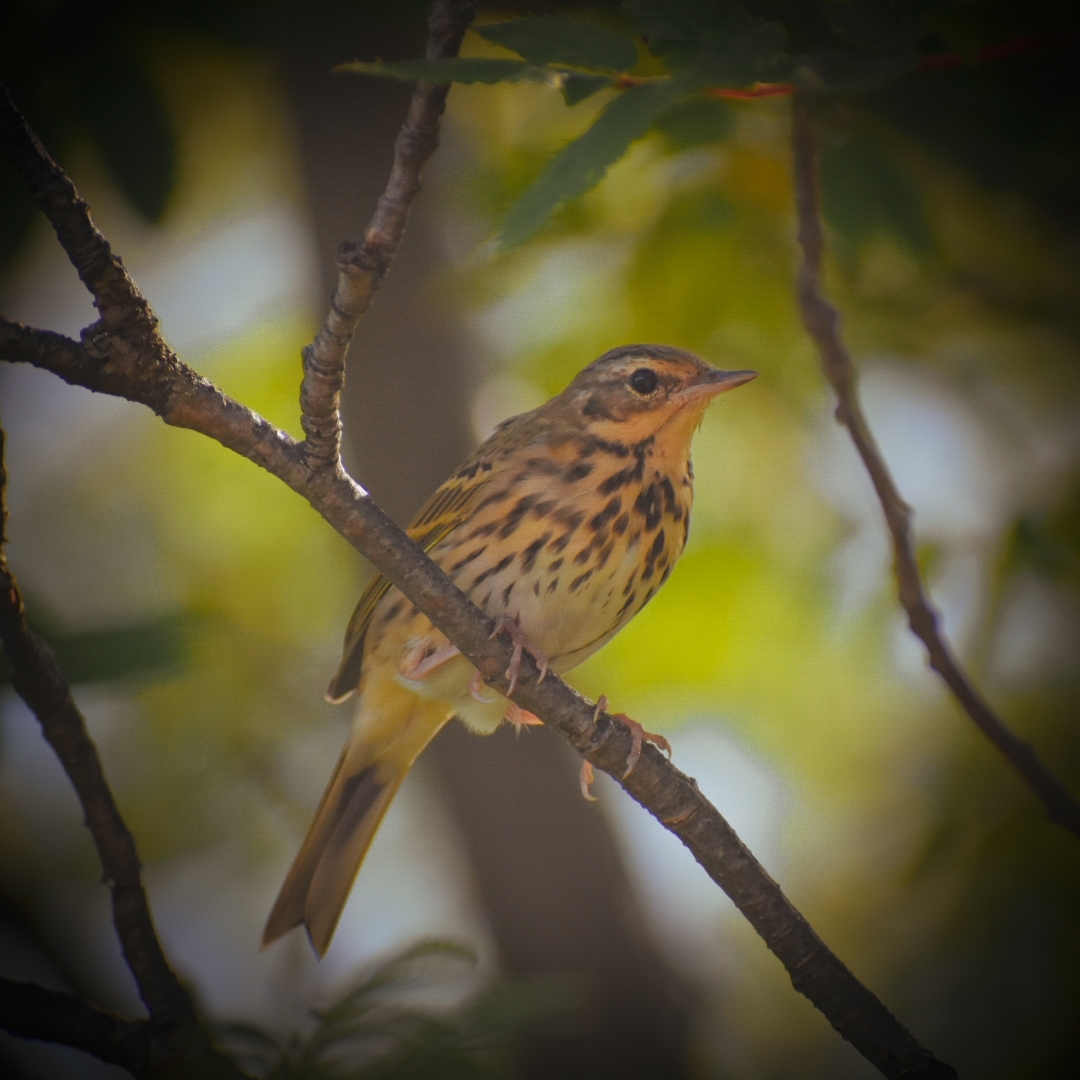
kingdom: Animalia
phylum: Chordata
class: Aves
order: Passeriformes
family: Motacillidae
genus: Anthus
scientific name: Anthus hodgsoni
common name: Olive-backed pipit
